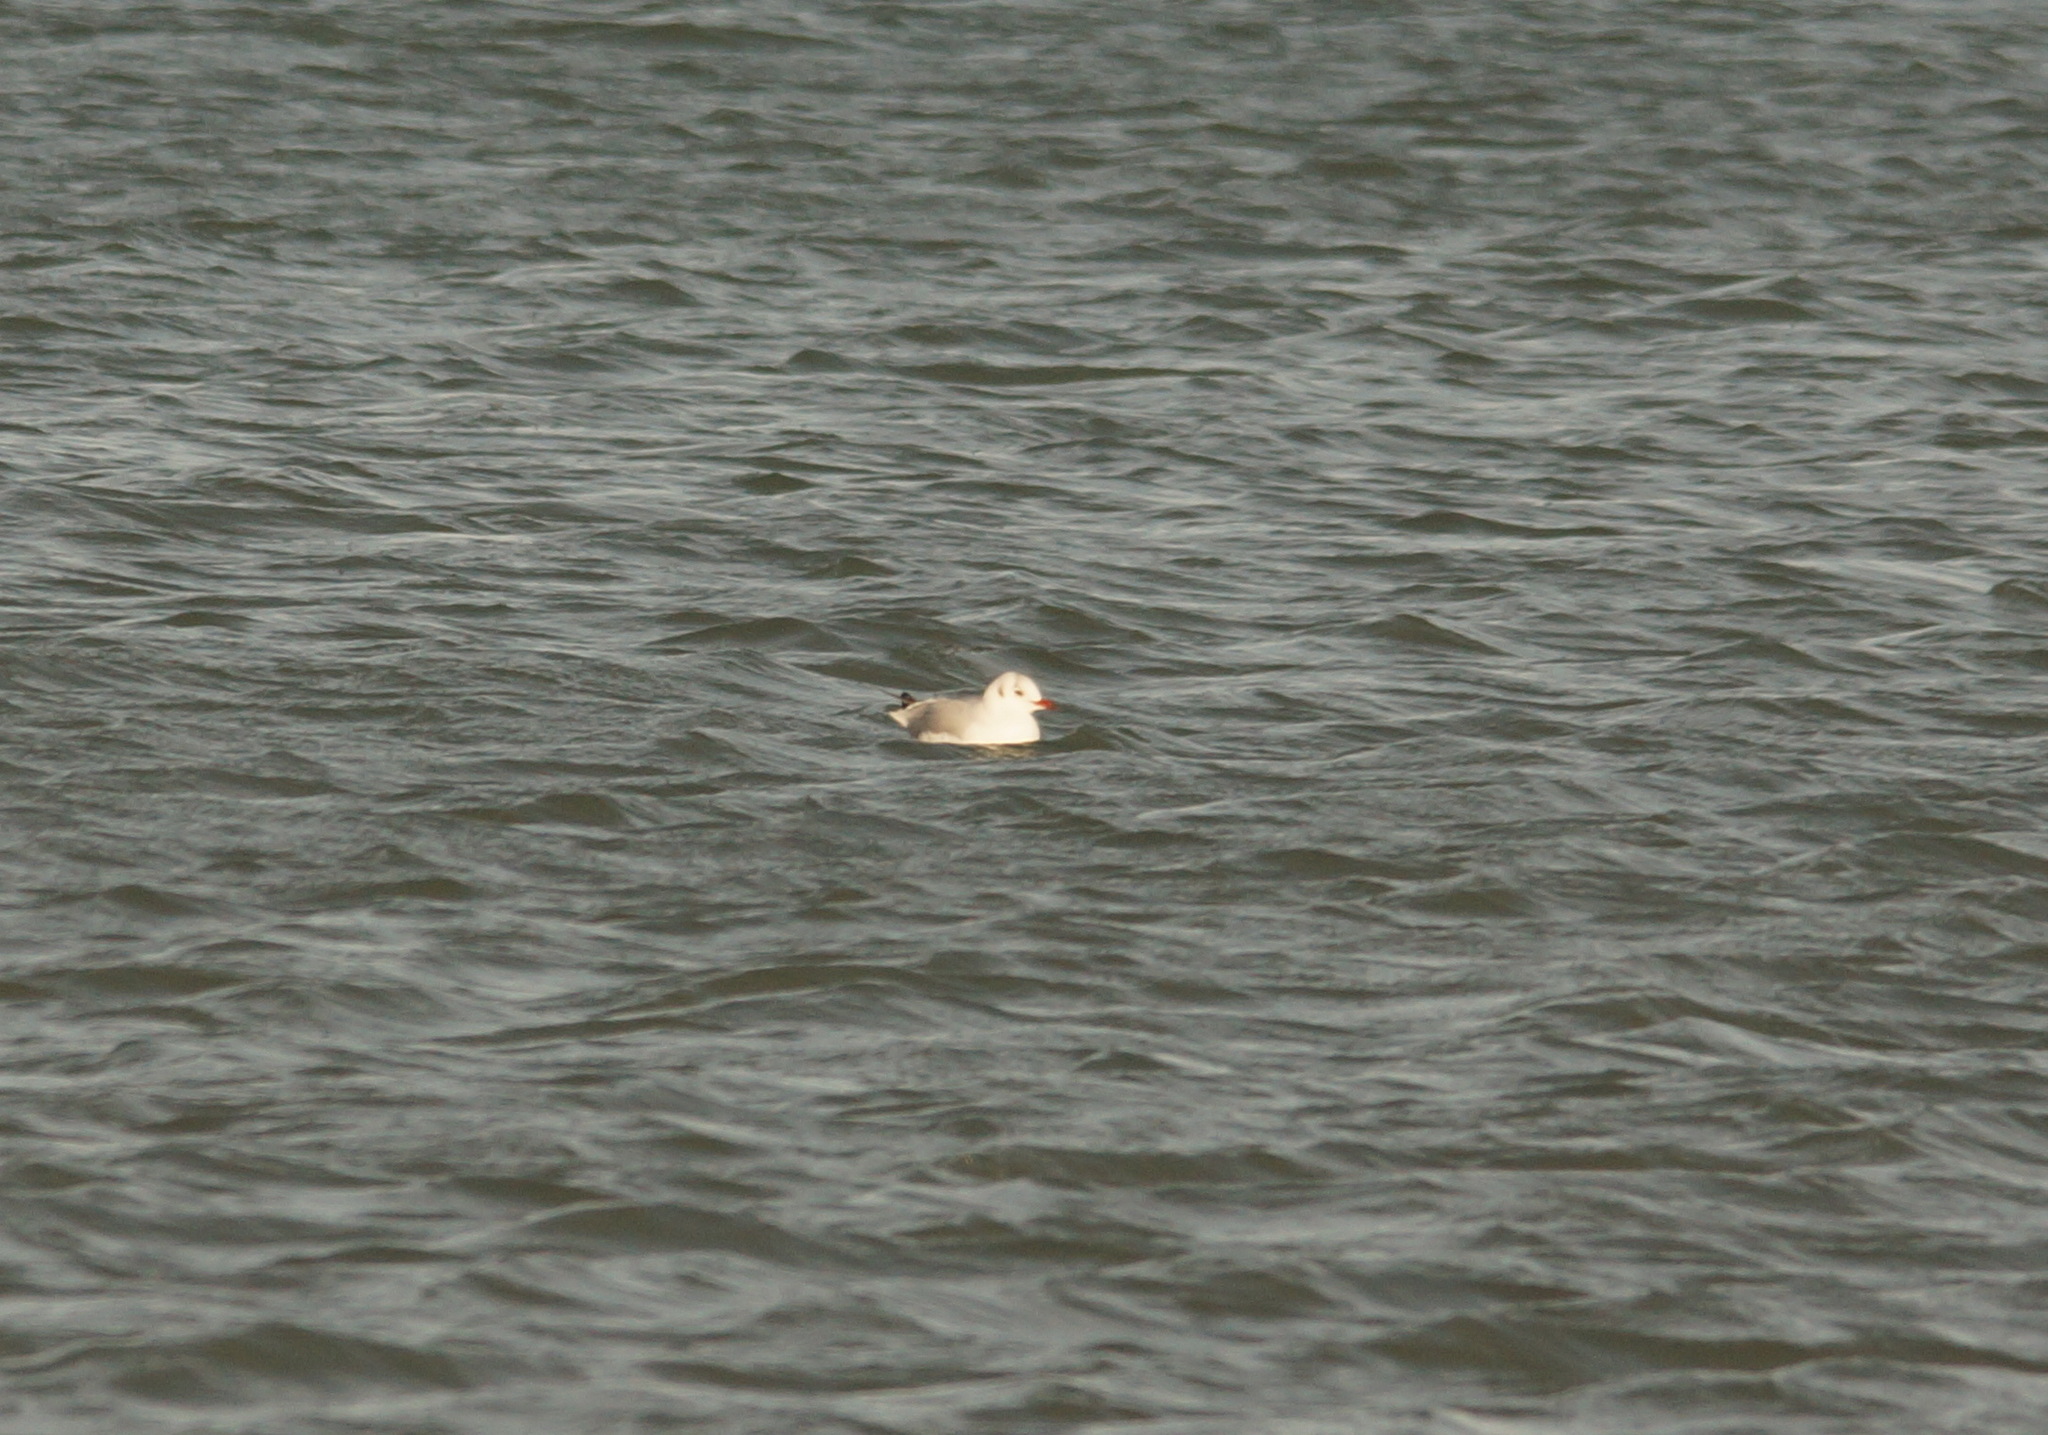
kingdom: Animalia
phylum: Chordata
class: Aves
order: Charadriiformes
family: Laridae
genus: Chroicocephalus
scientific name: Chroicocephalus ridibundus
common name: Black-headed gull
